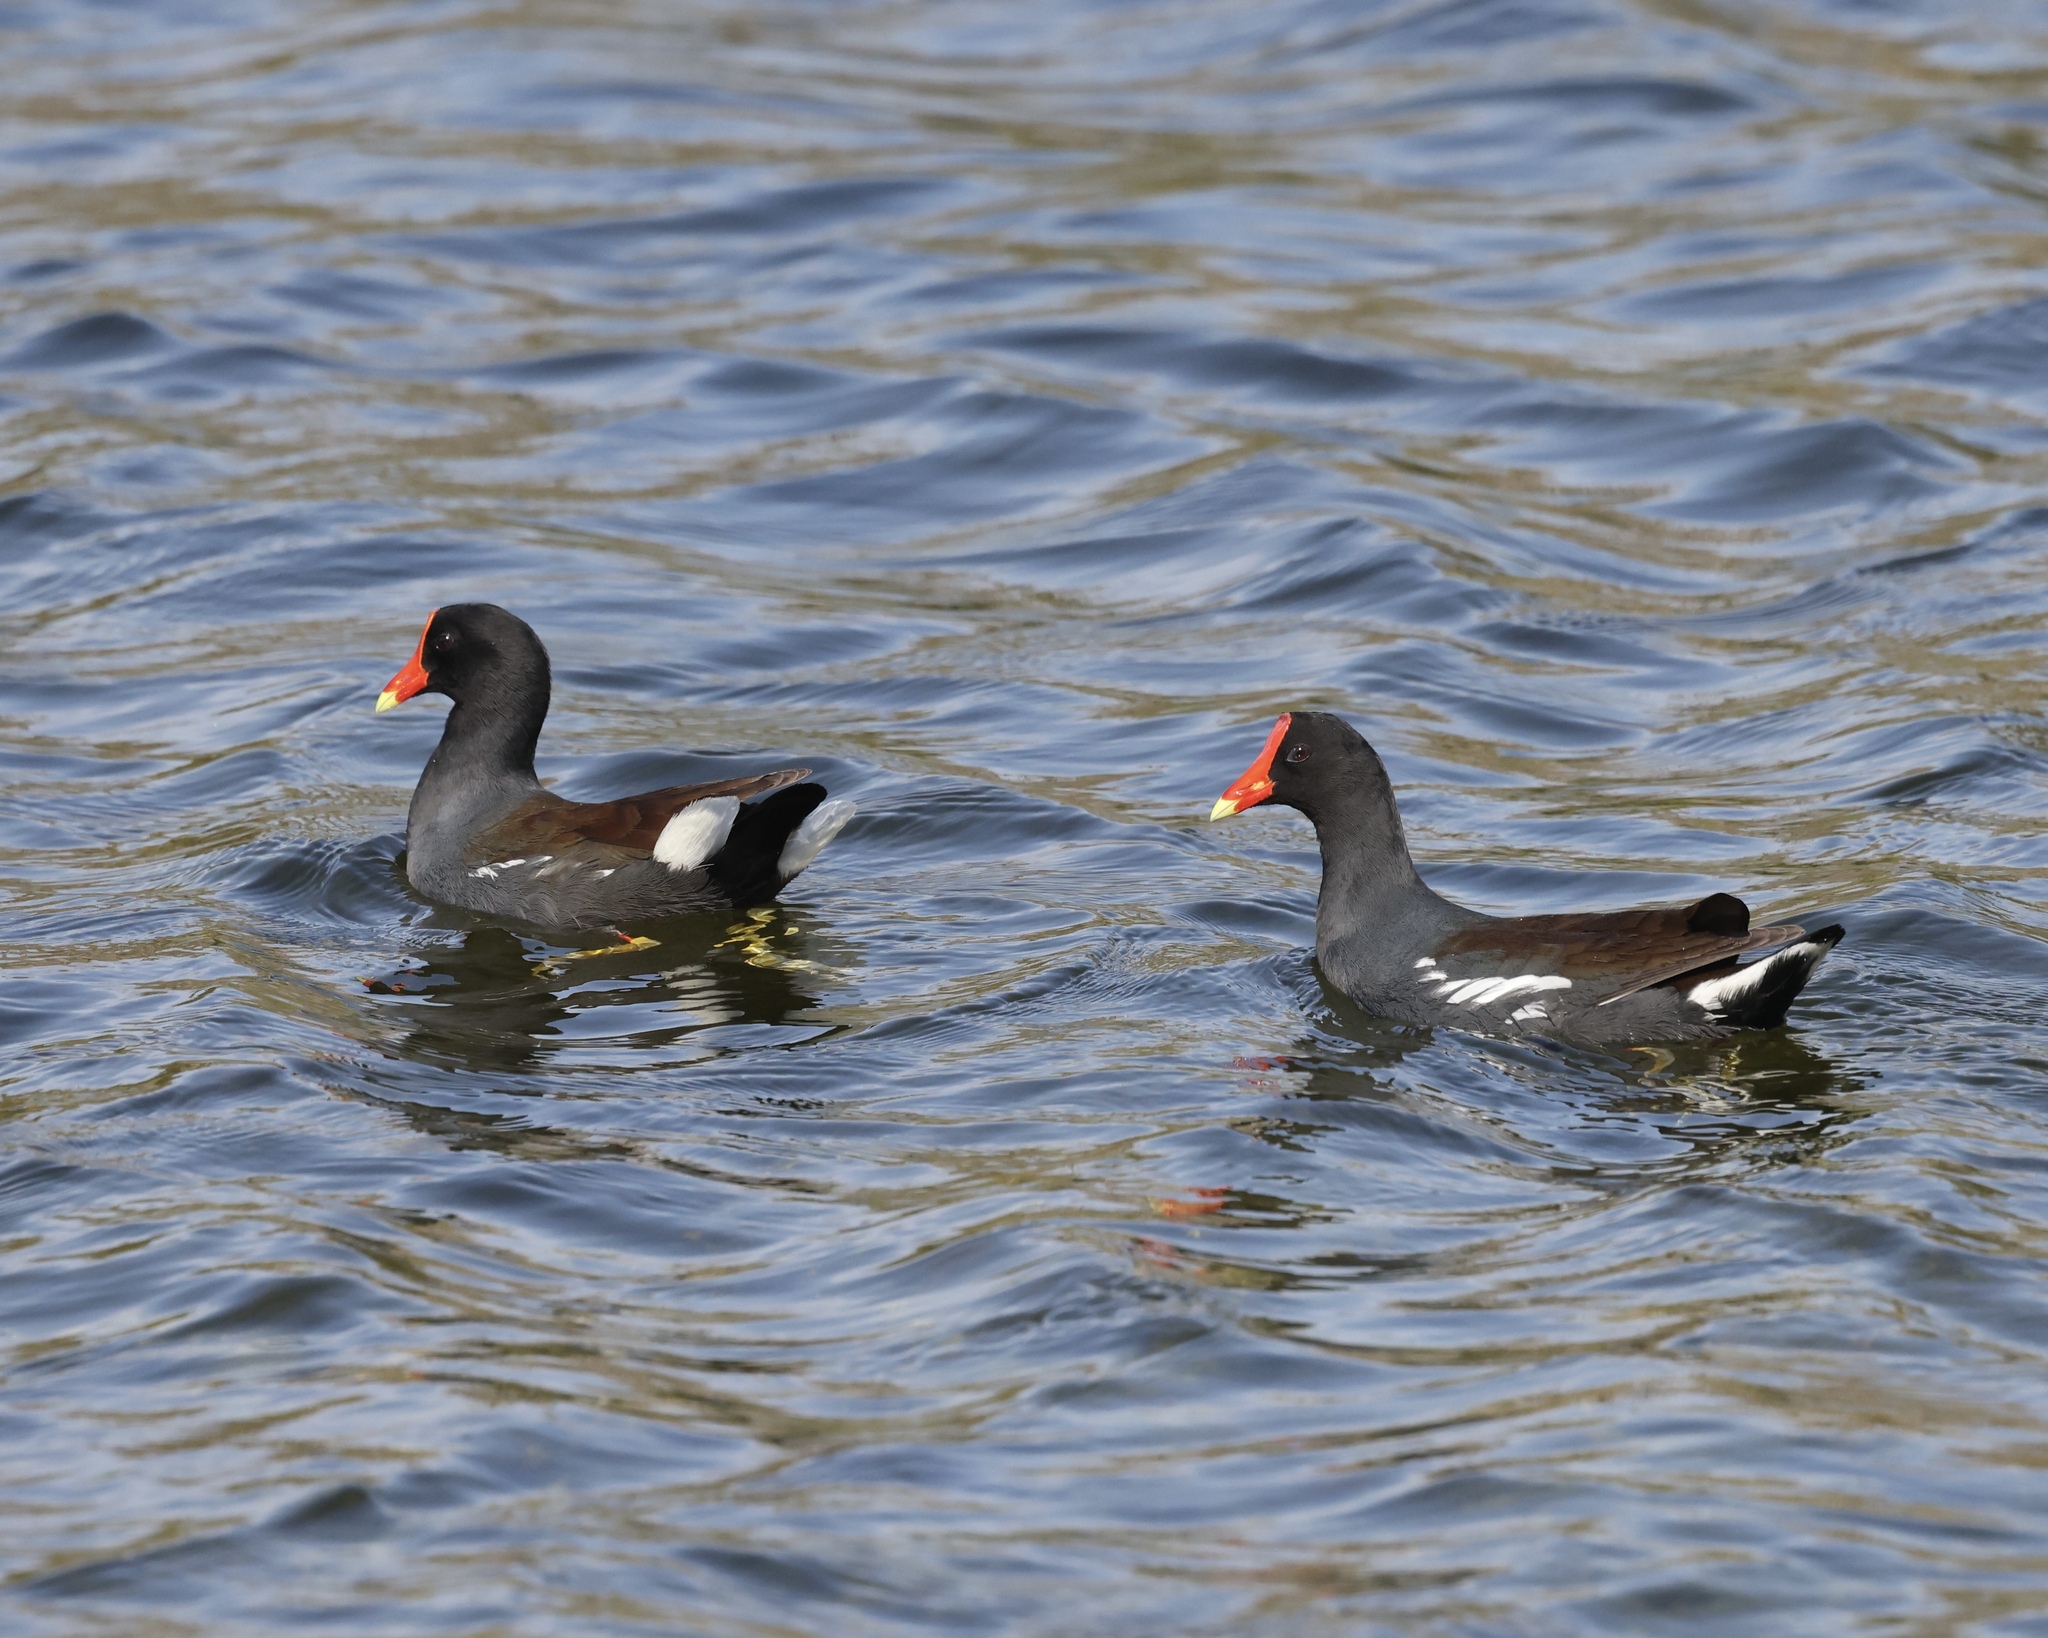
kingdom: Animalia
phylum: Chordata
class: Aves
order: Gruiformes
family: Rallidae
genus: Gallinula
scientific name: Gallinula chloropus
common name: Common moorhen
